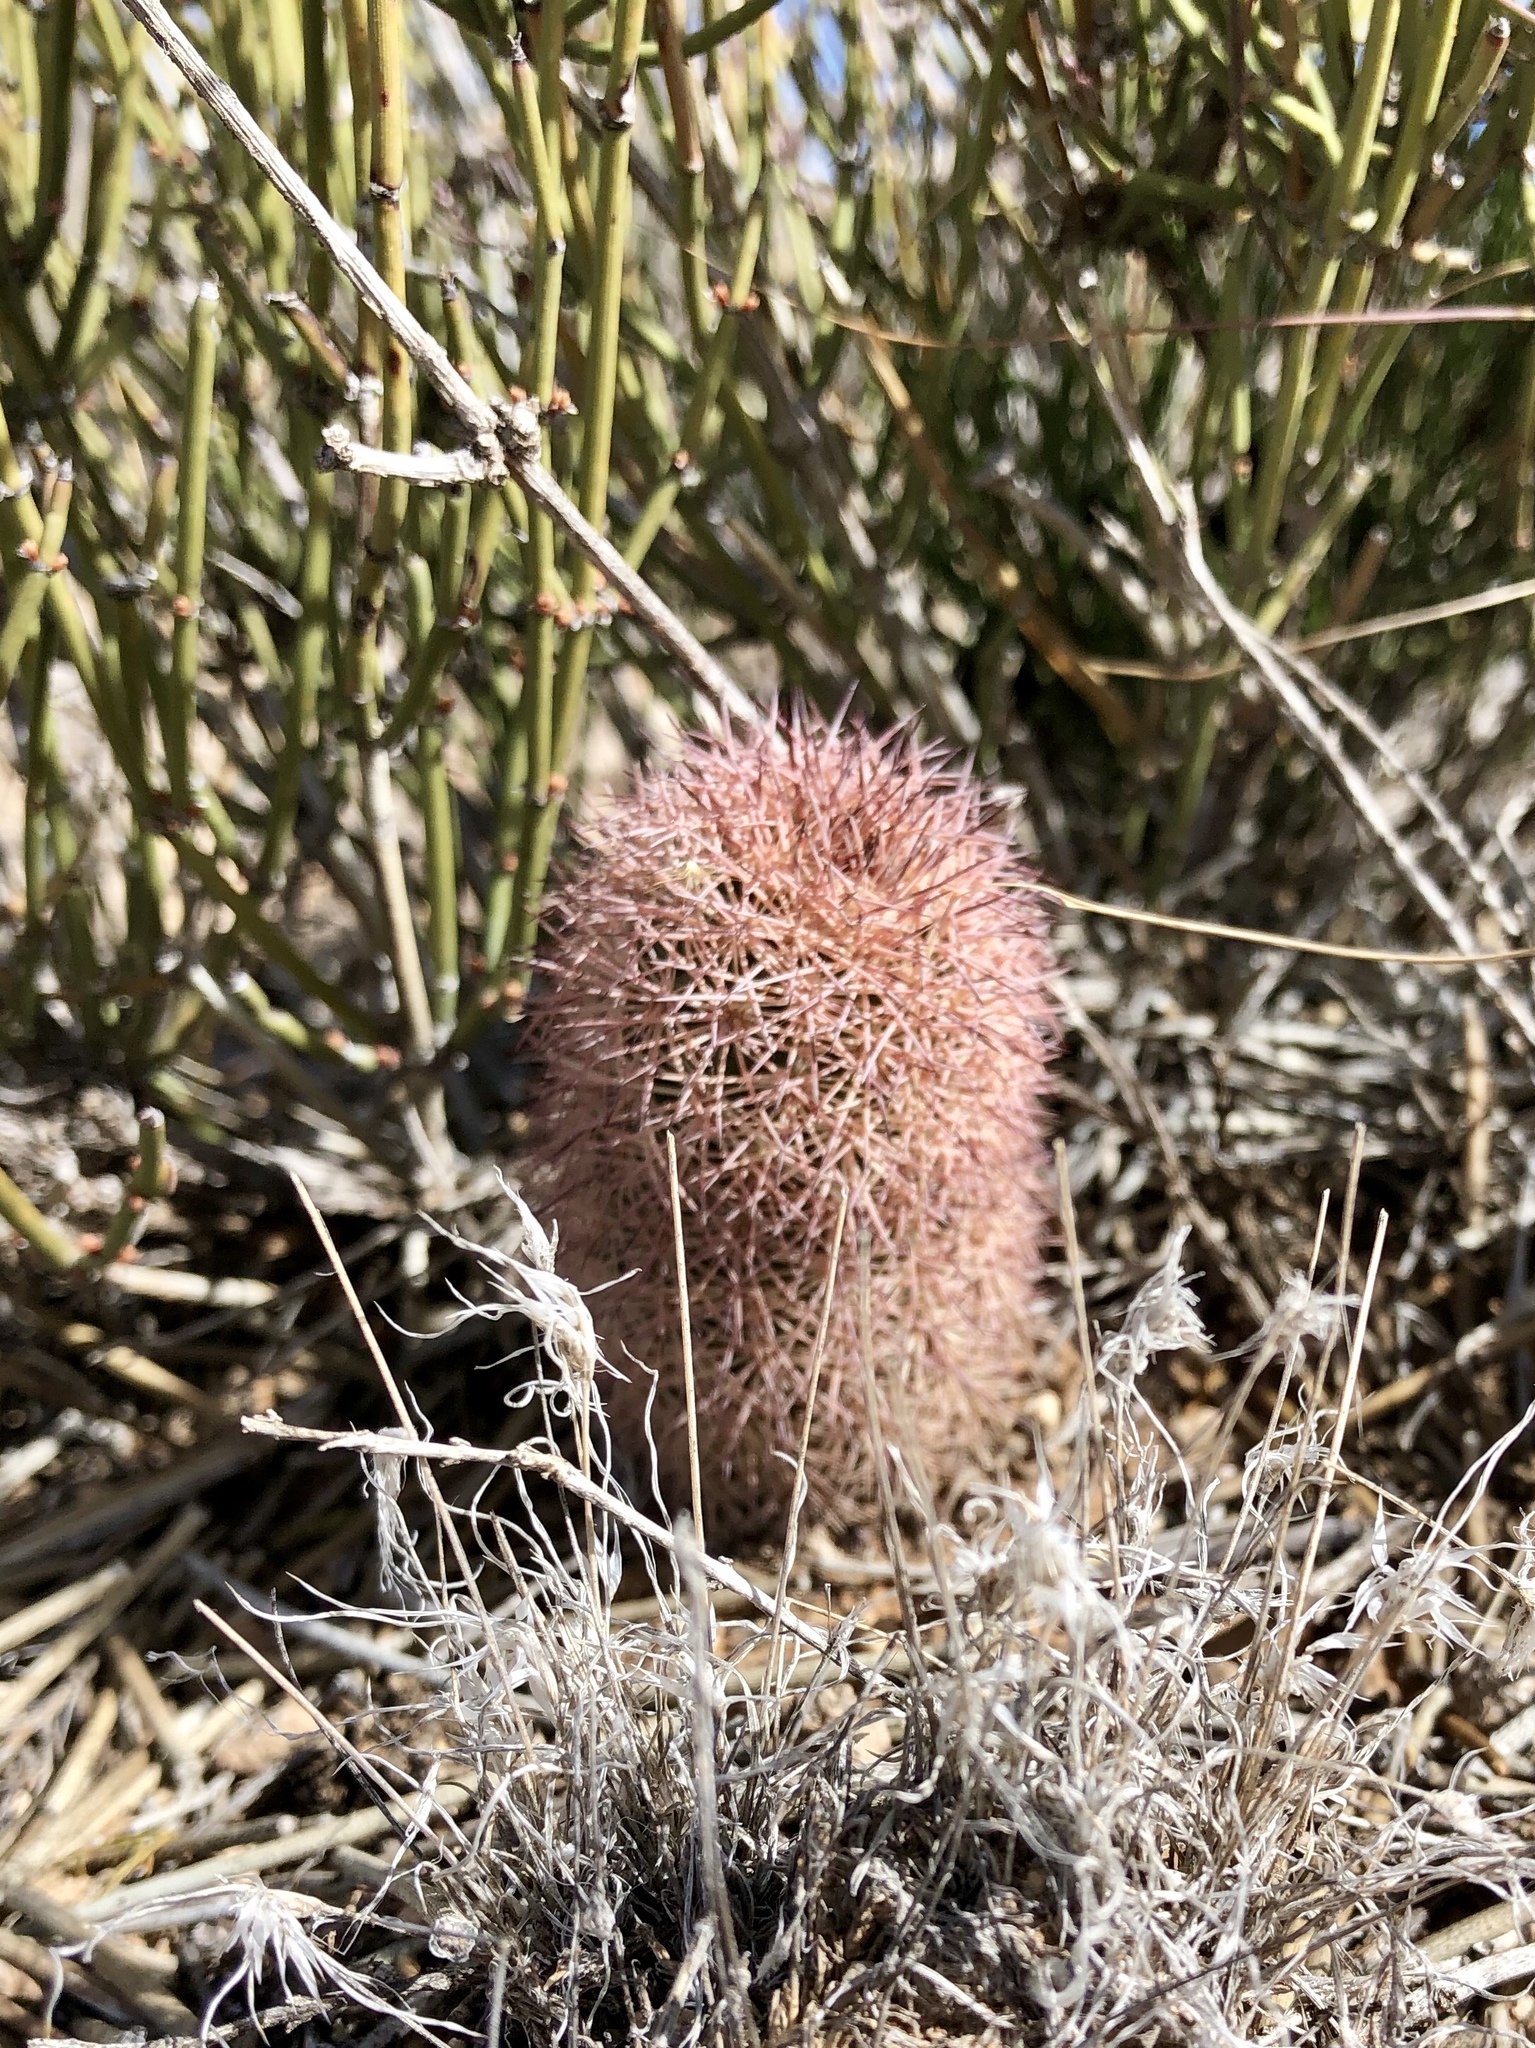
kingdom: Plantae
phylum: Tracheophyta
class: Magnoliopsida
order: Caryophyllales
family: Cactaceae
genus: Echinocereus
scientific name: Echinocereus dasyacanthus
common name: Spiny hedgehog cactus
